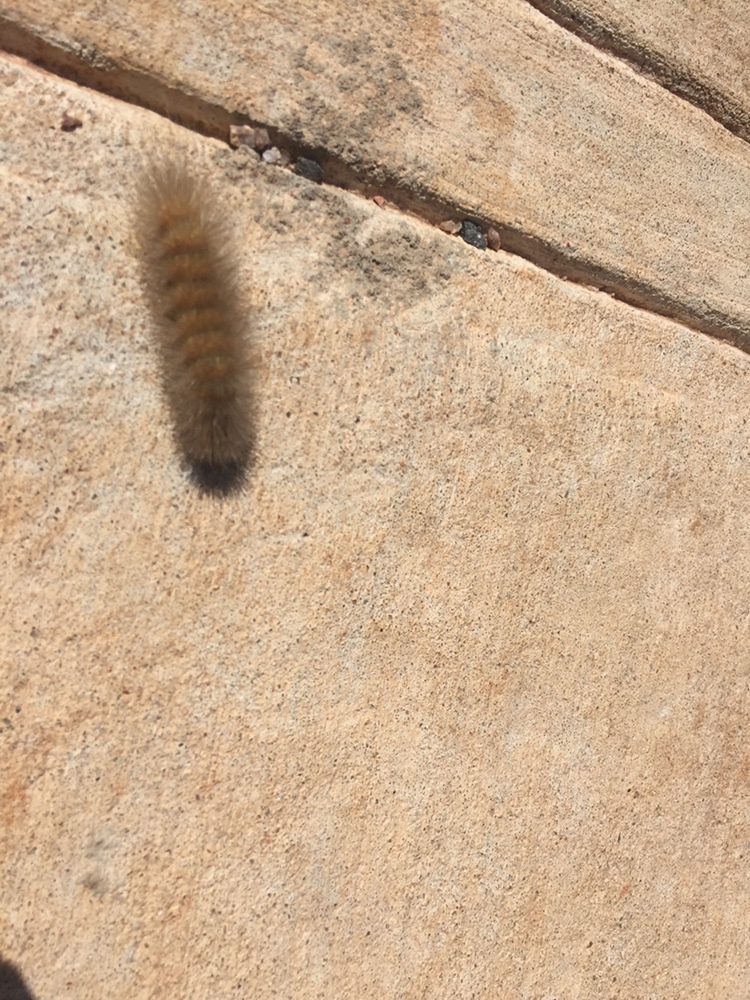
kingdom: Animalia
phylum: Arthropoda
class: Insecta
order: Lepidoptera
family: Erebidae
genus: Estigmene
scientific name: Estigmene acrea
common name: Salt marsh moth
